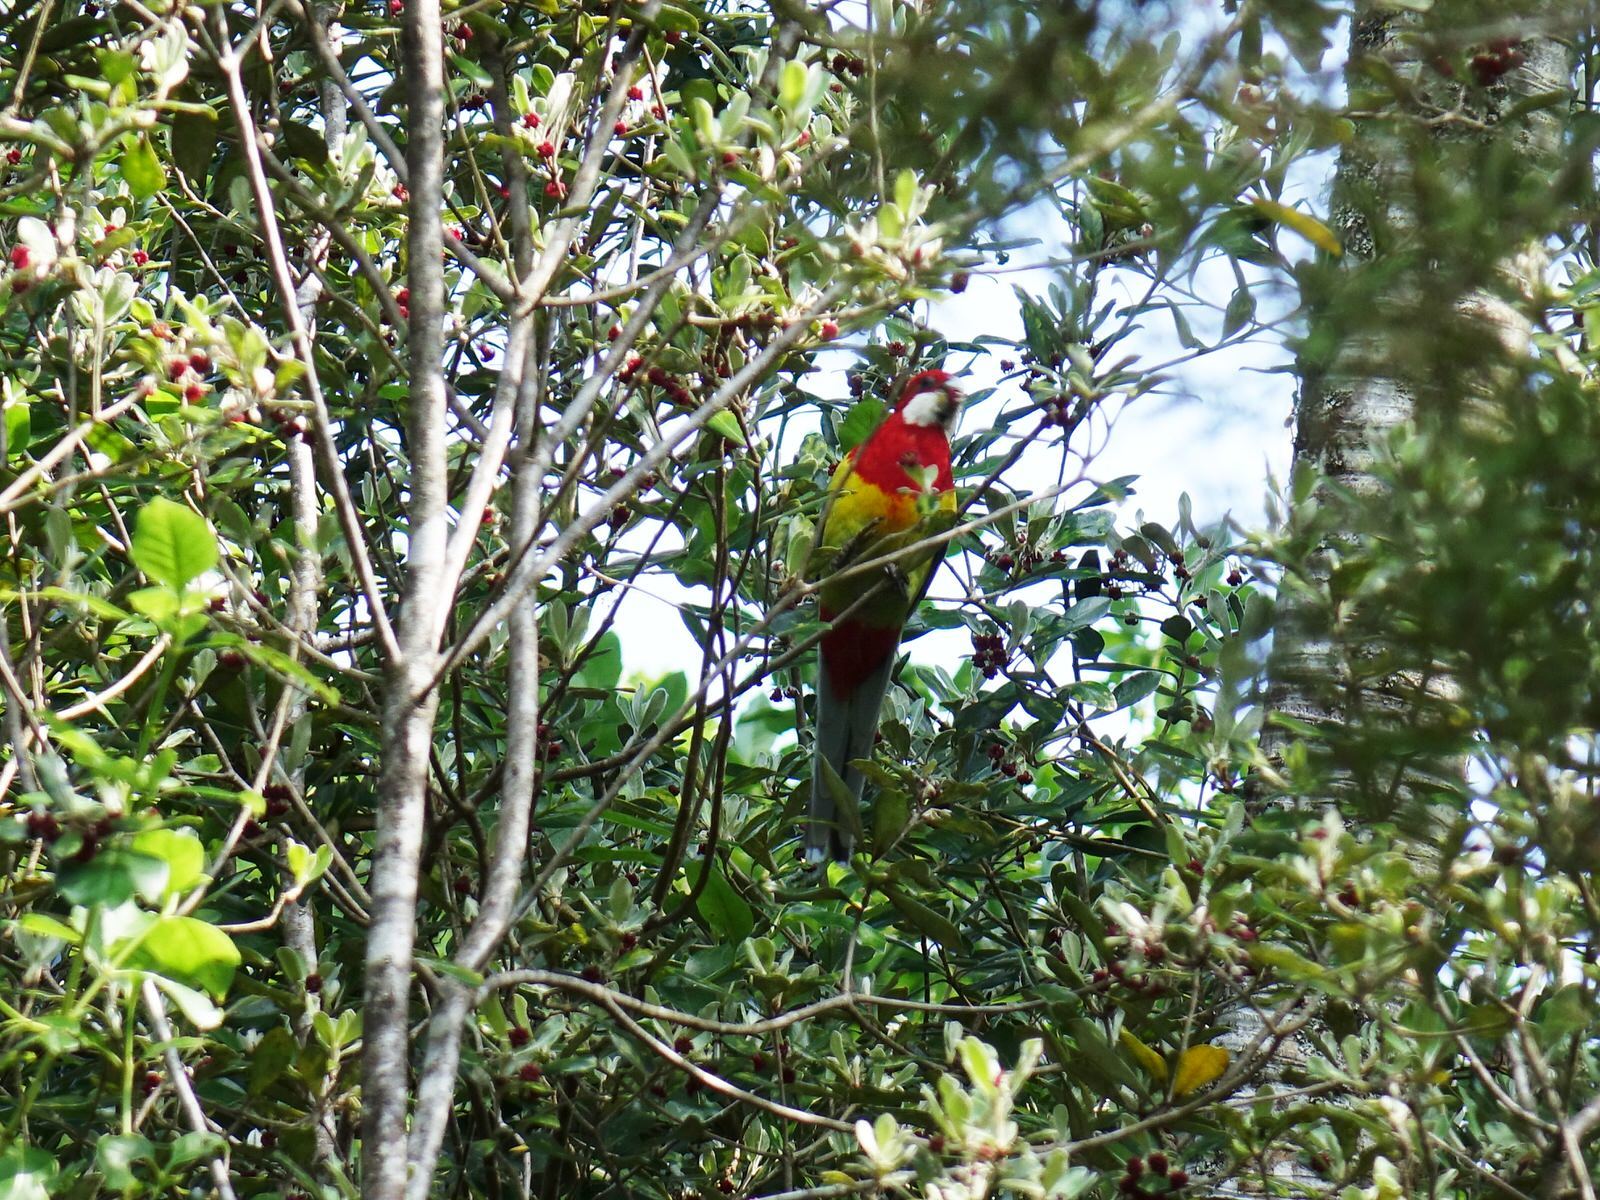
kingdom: Animalia
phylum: Chordata
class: Aves
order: Psittaciformes
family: Psittacidae
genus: Platycercus
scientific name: Platycercus eximius
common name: Eastern rosella
